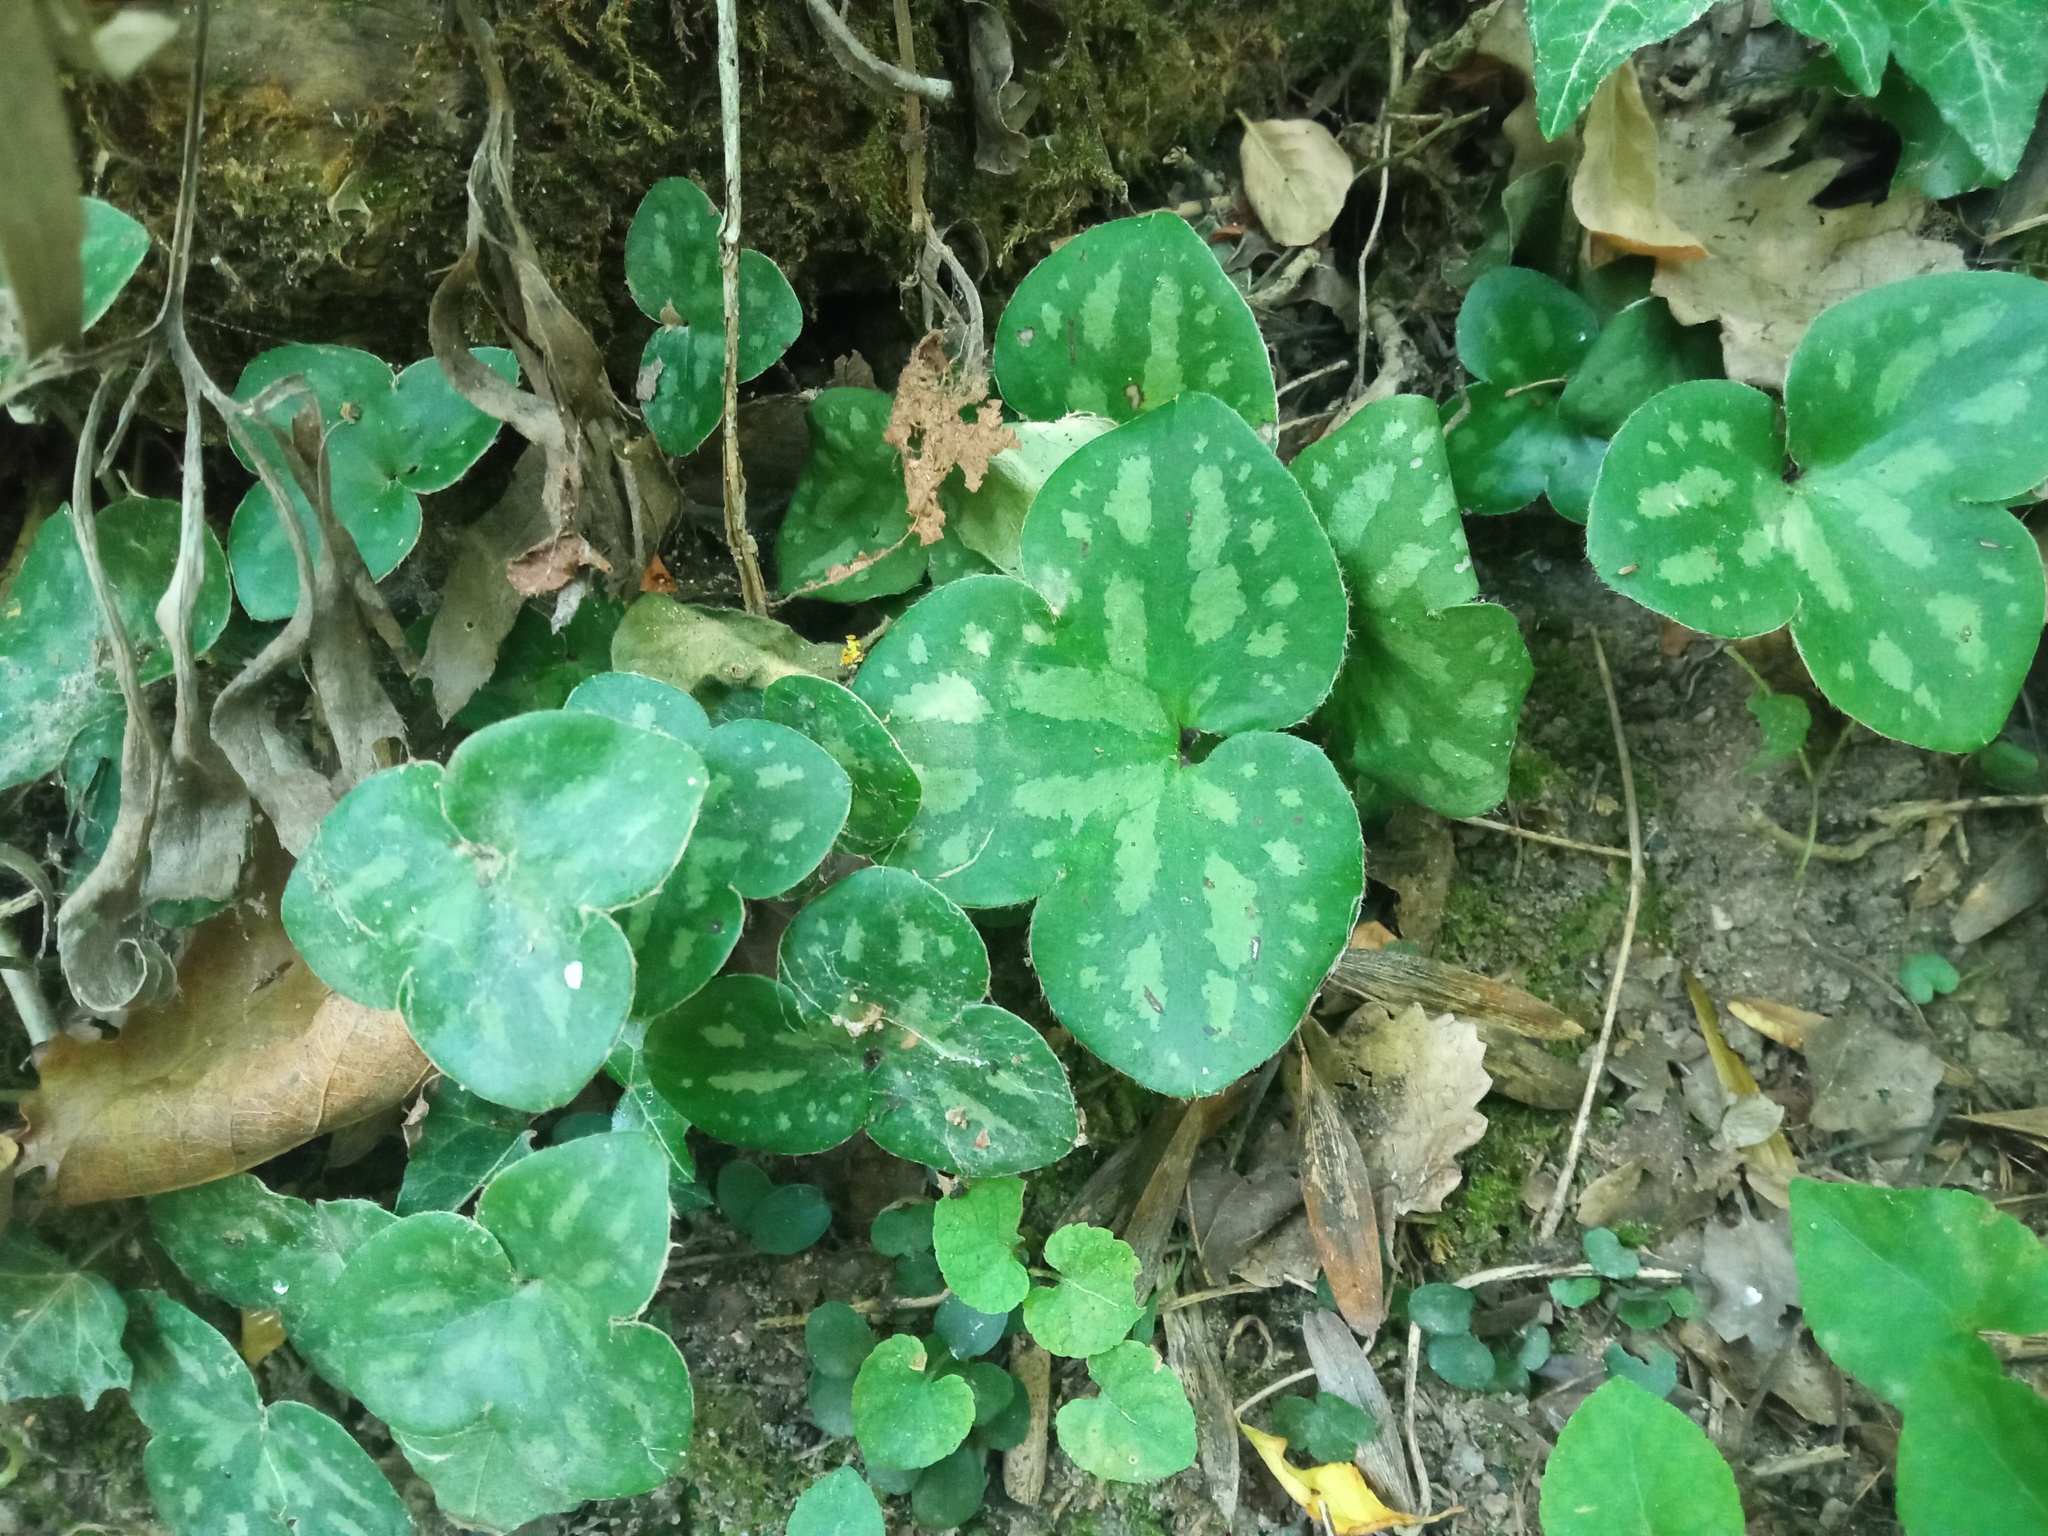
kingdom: Plantae
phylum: Tracheophyta
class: Magnoliopsida
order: Ranunculales
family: Ranunculaceae
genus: Hepatica
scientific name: Hepatica nobilis
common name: Liverleaf
